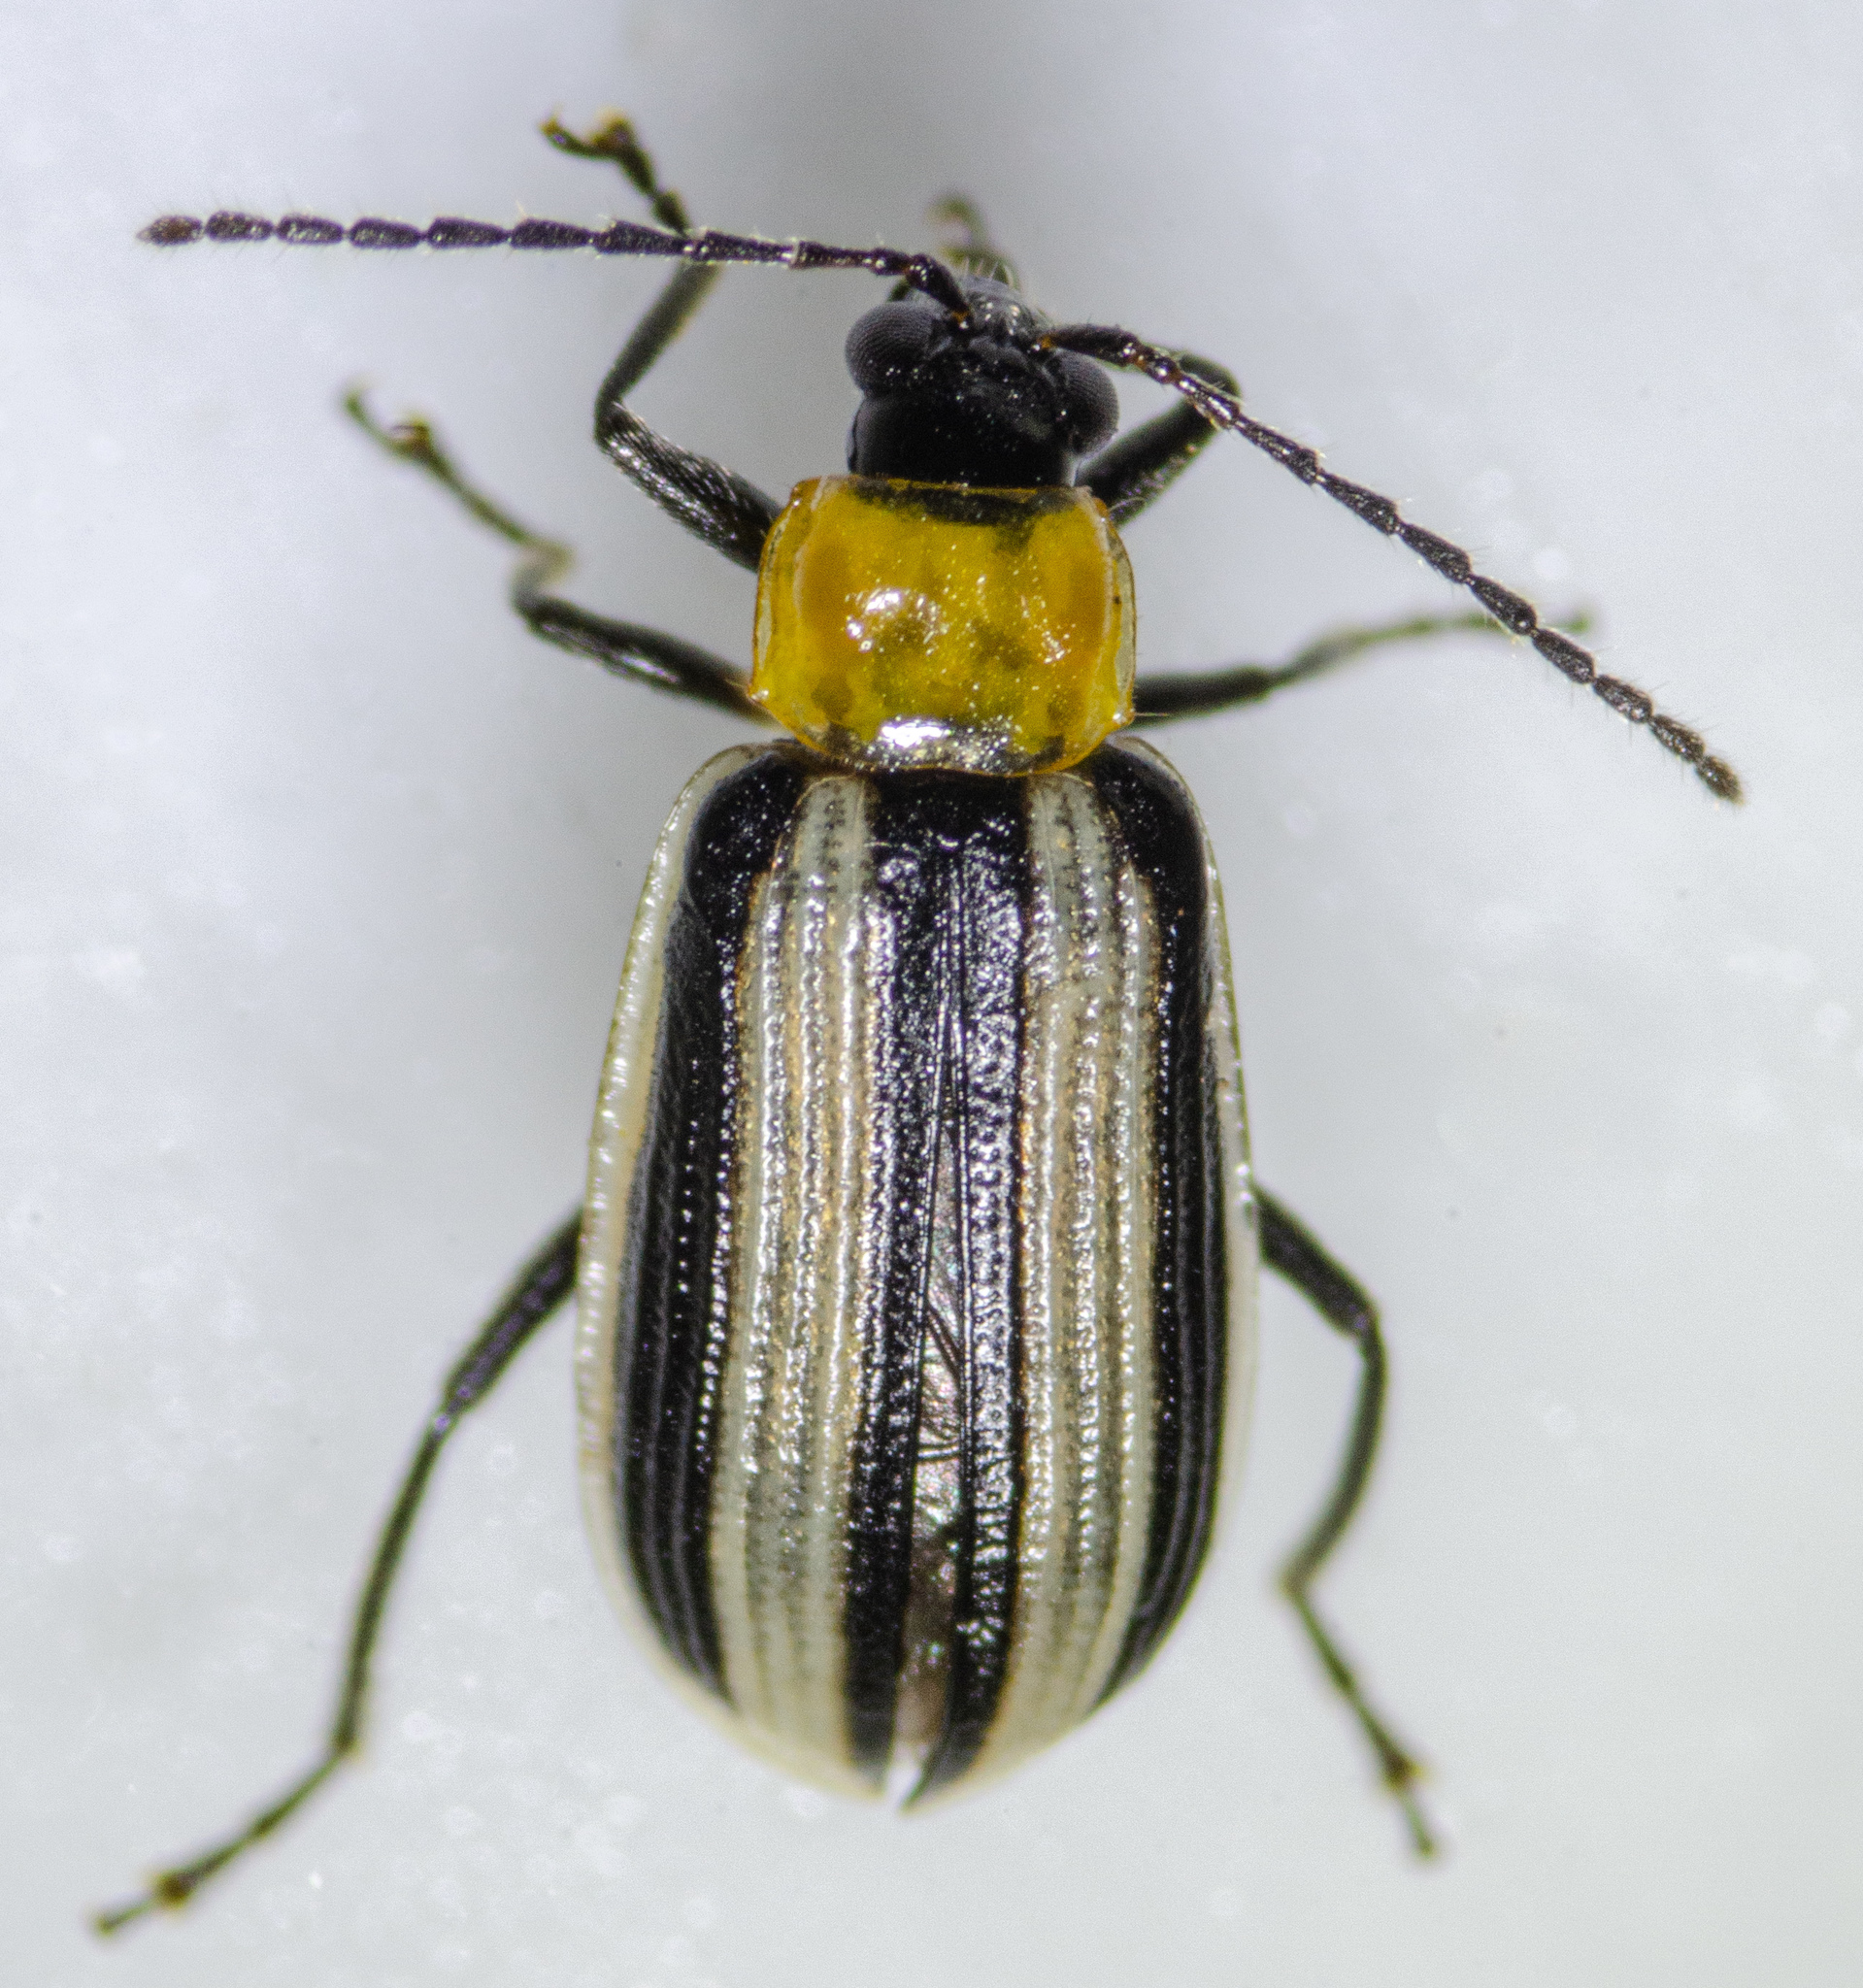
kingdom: Animalia
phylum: Arthropoda
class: Insecta
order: Coleoptera
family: Chrysomelidae
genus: Acalymma
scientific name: Acalymma trivittatum
